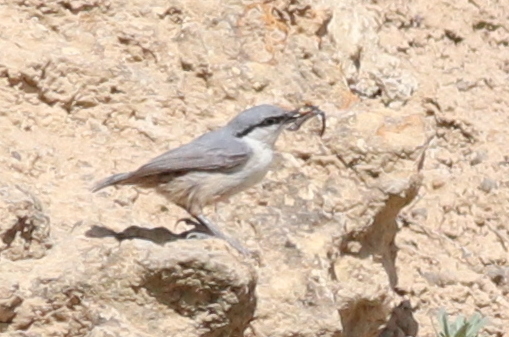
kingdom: Animalia
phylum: Chordata
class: Aves
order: Passeriformes
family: Sittidae
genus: Sitta
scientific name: Sitta neumayer
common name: Western rock nuthatch
